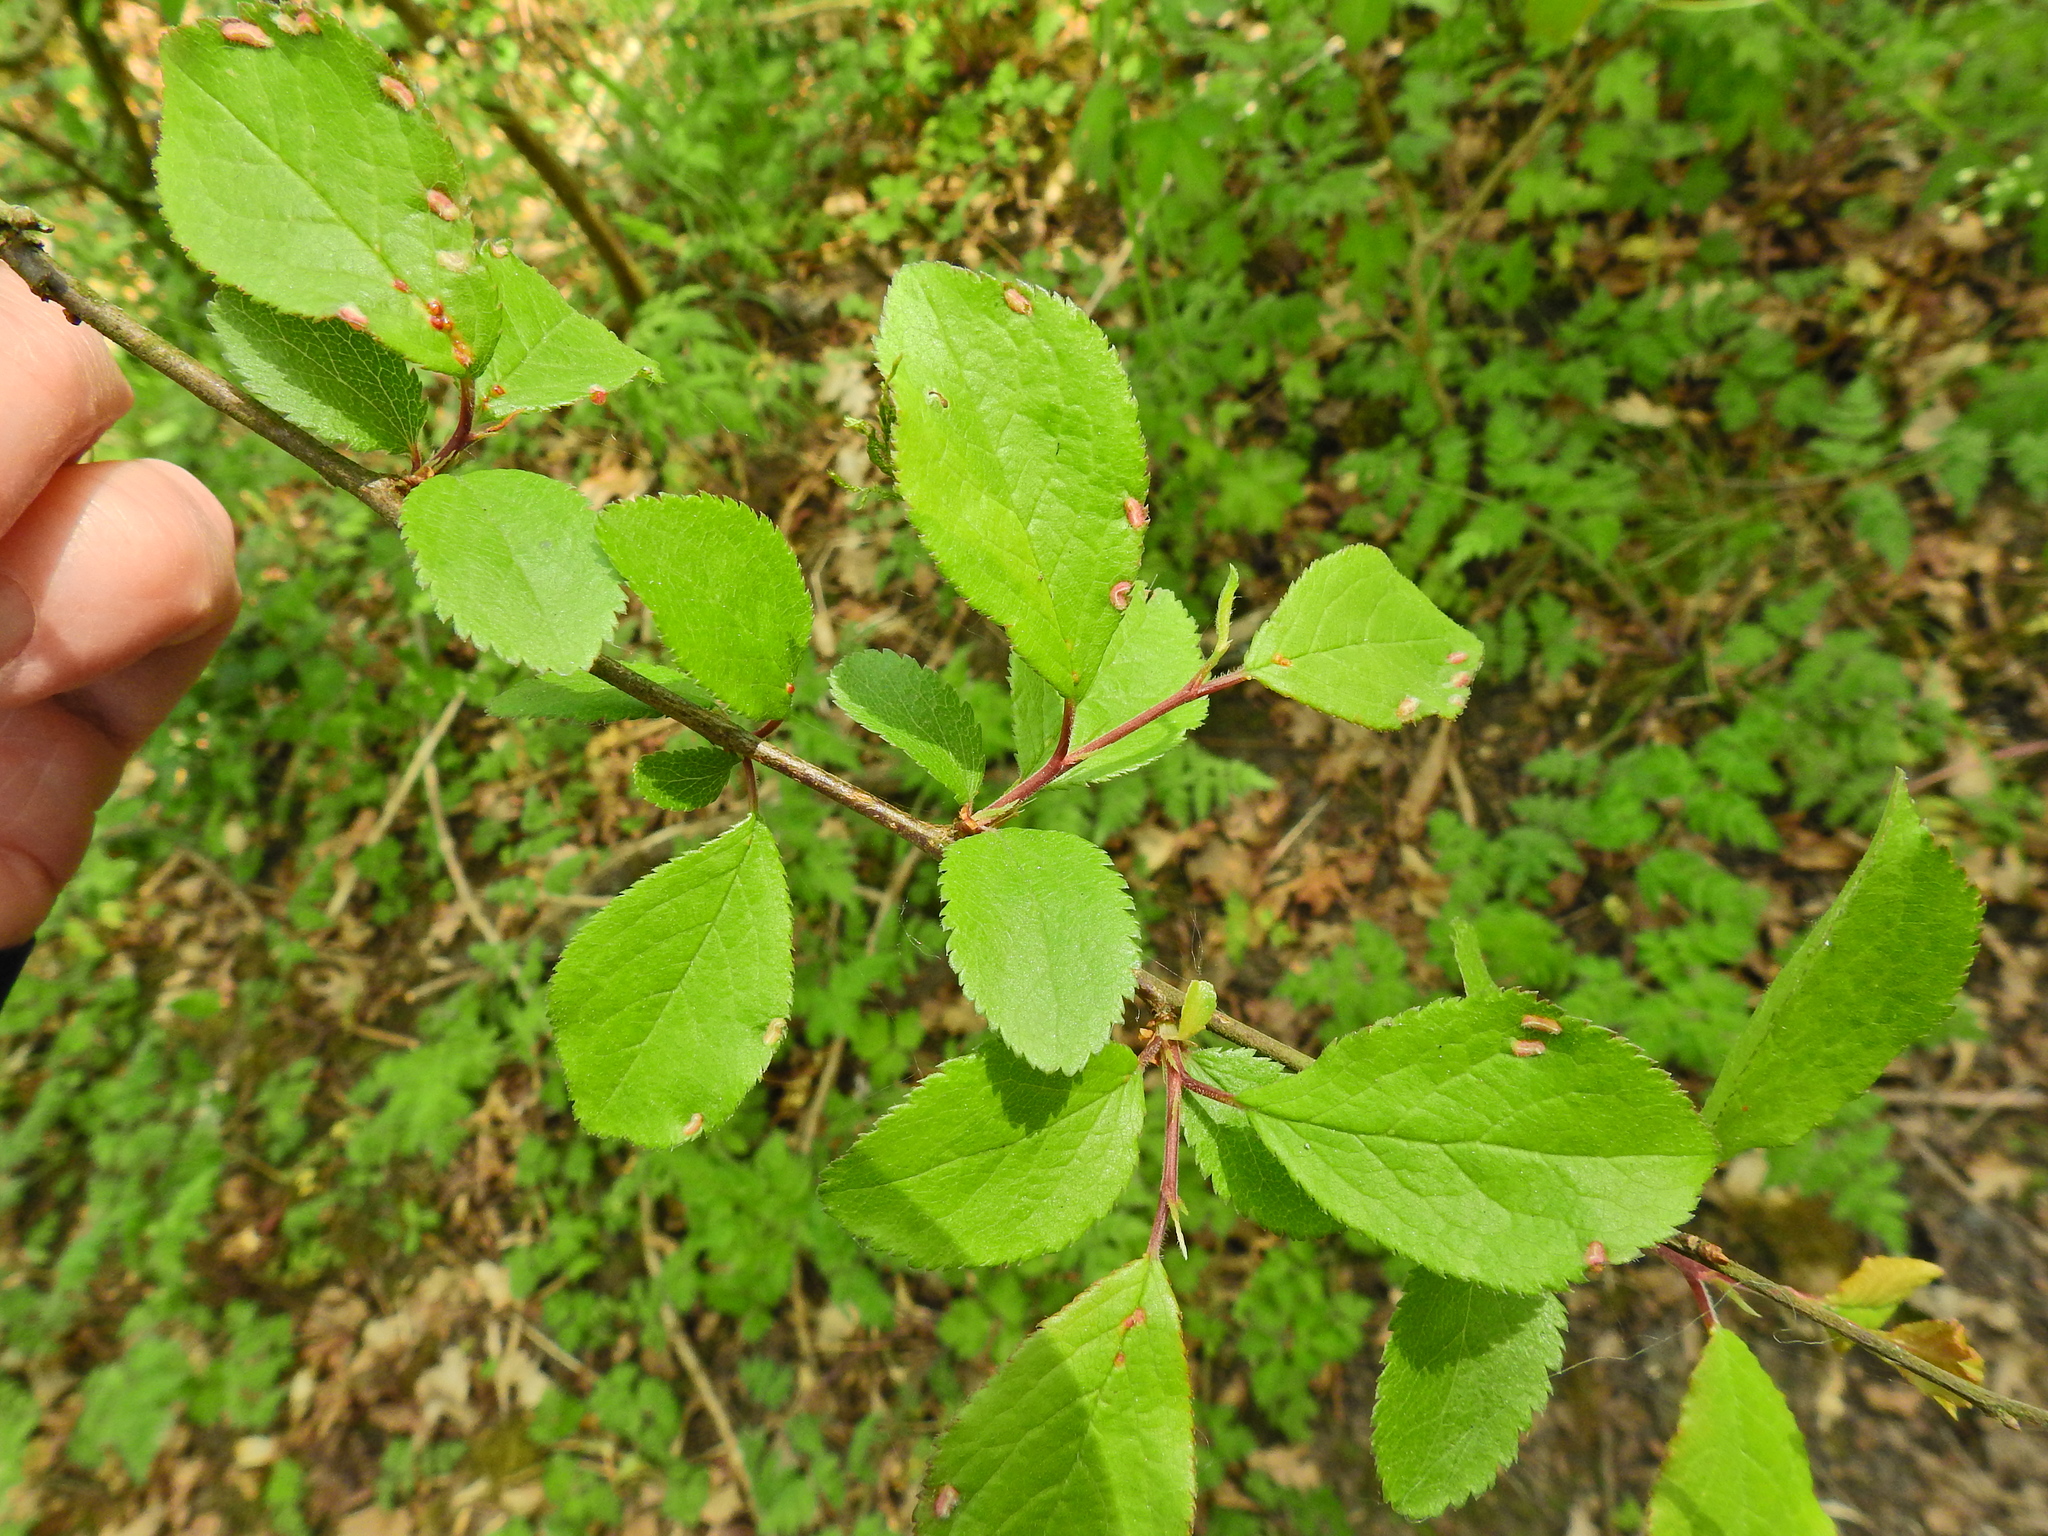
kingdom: Plantae
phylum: Tracheophyta
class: Magnoliopsida
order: Rosales
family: Rosaceae
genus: Prunus
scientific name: Prunus spinosa
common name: Blackthorn
